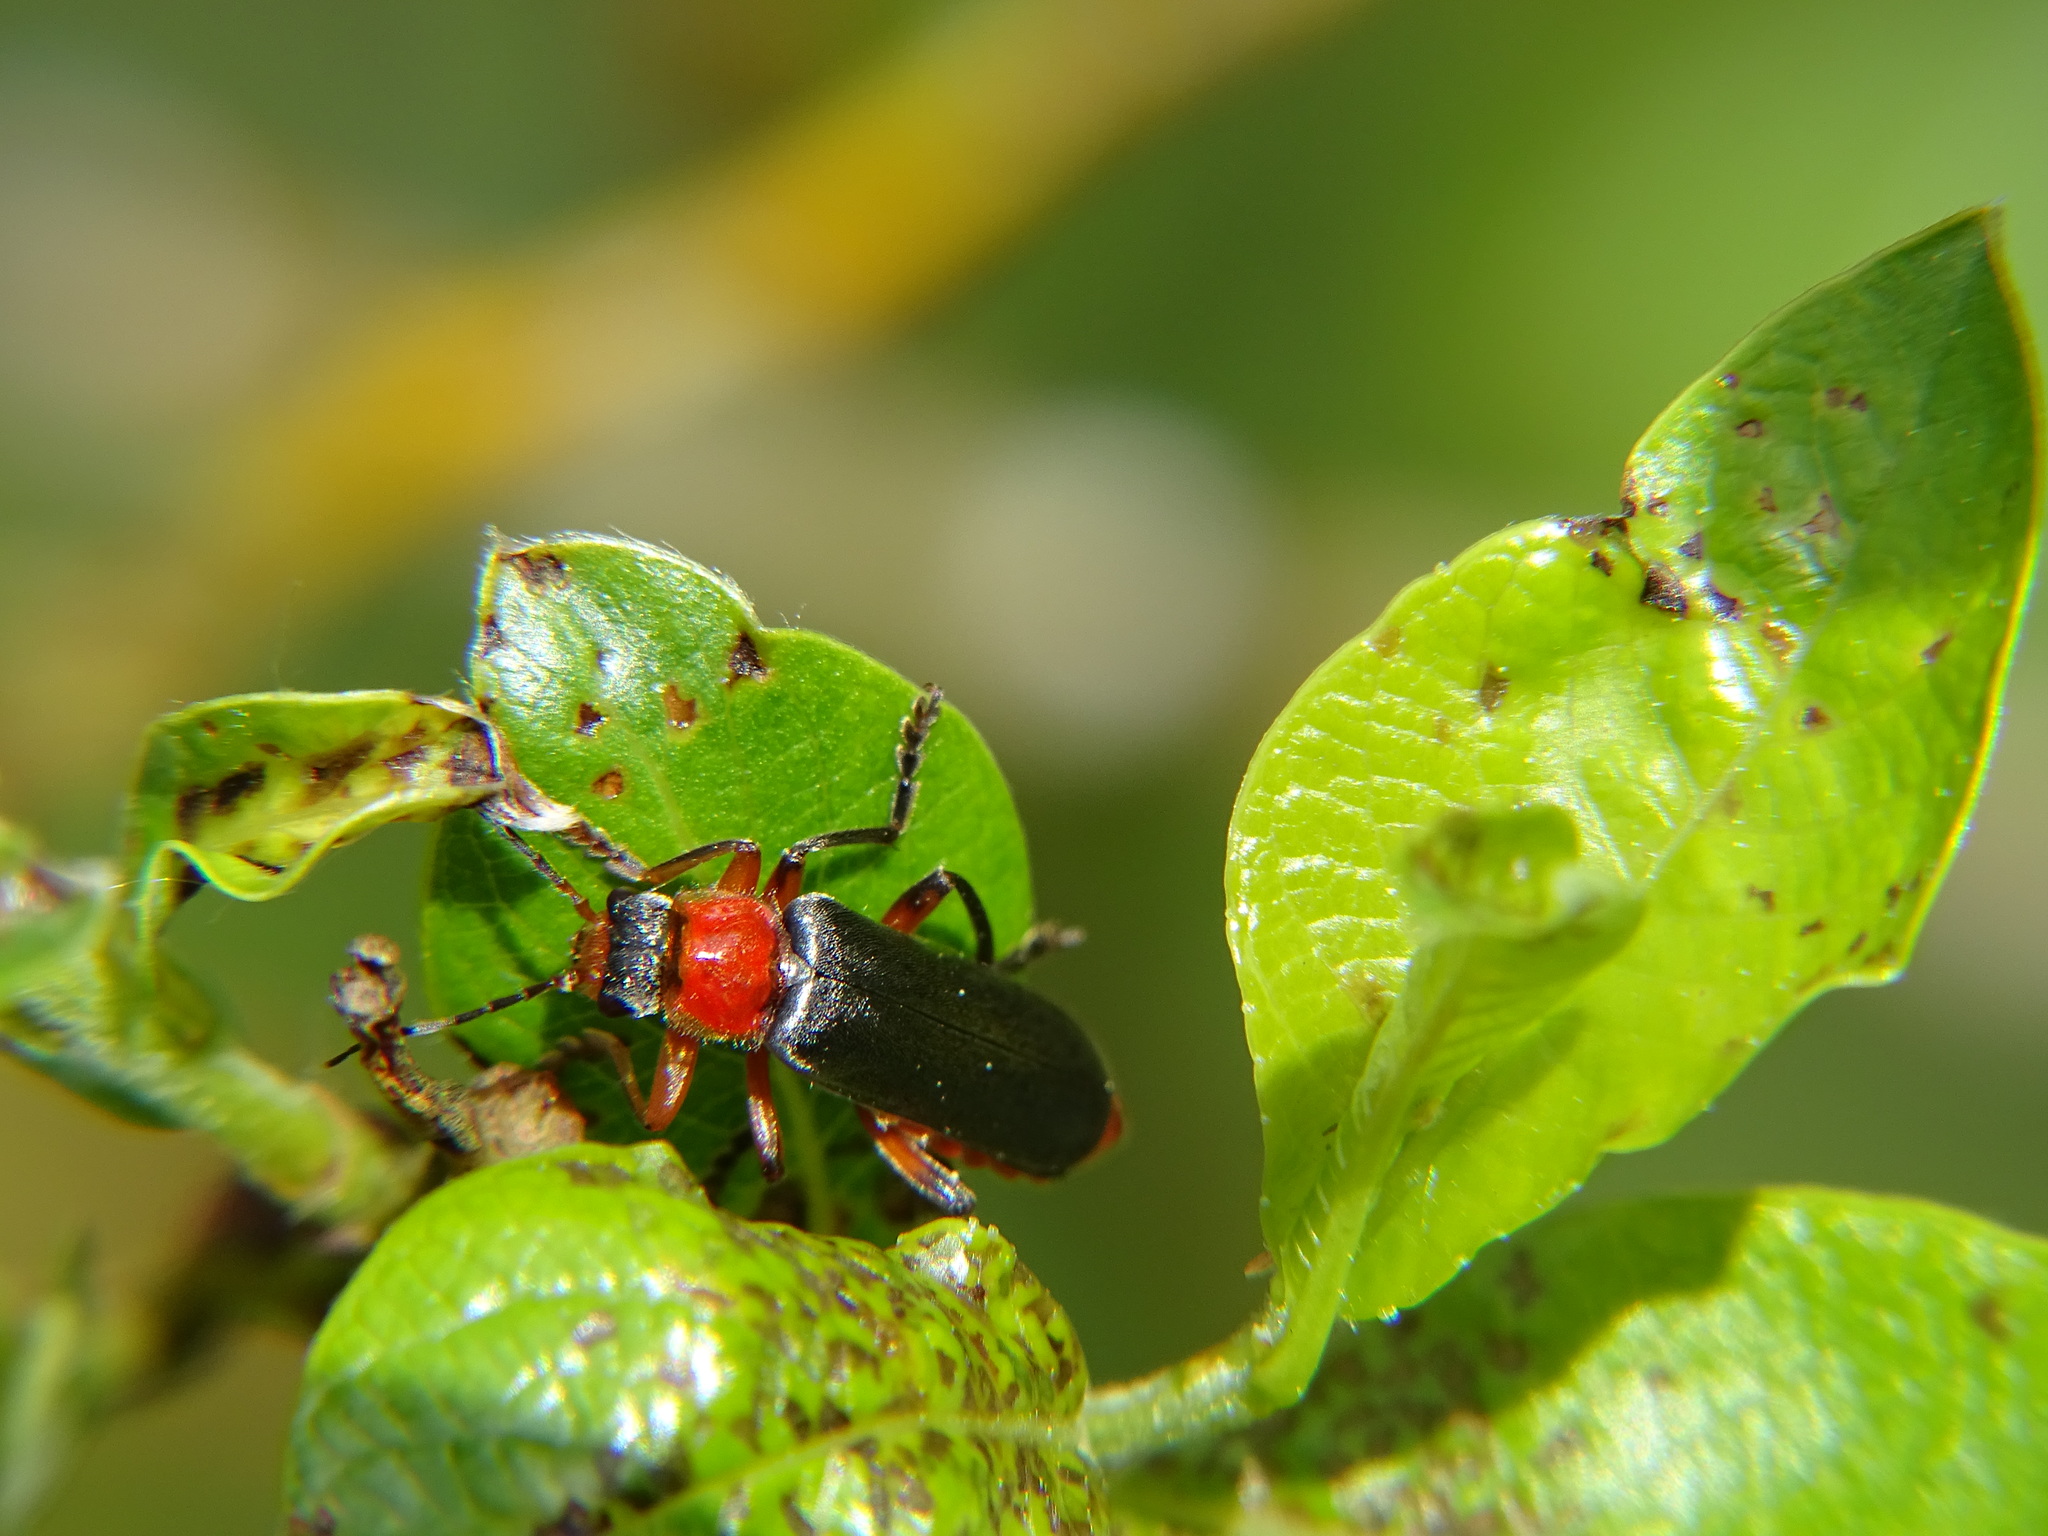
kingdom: Animalia
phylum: Arthropoda
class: Insecta
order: Coleoptera
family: Cantharidae
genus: Cantharis
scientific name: Cantharis pellucida
